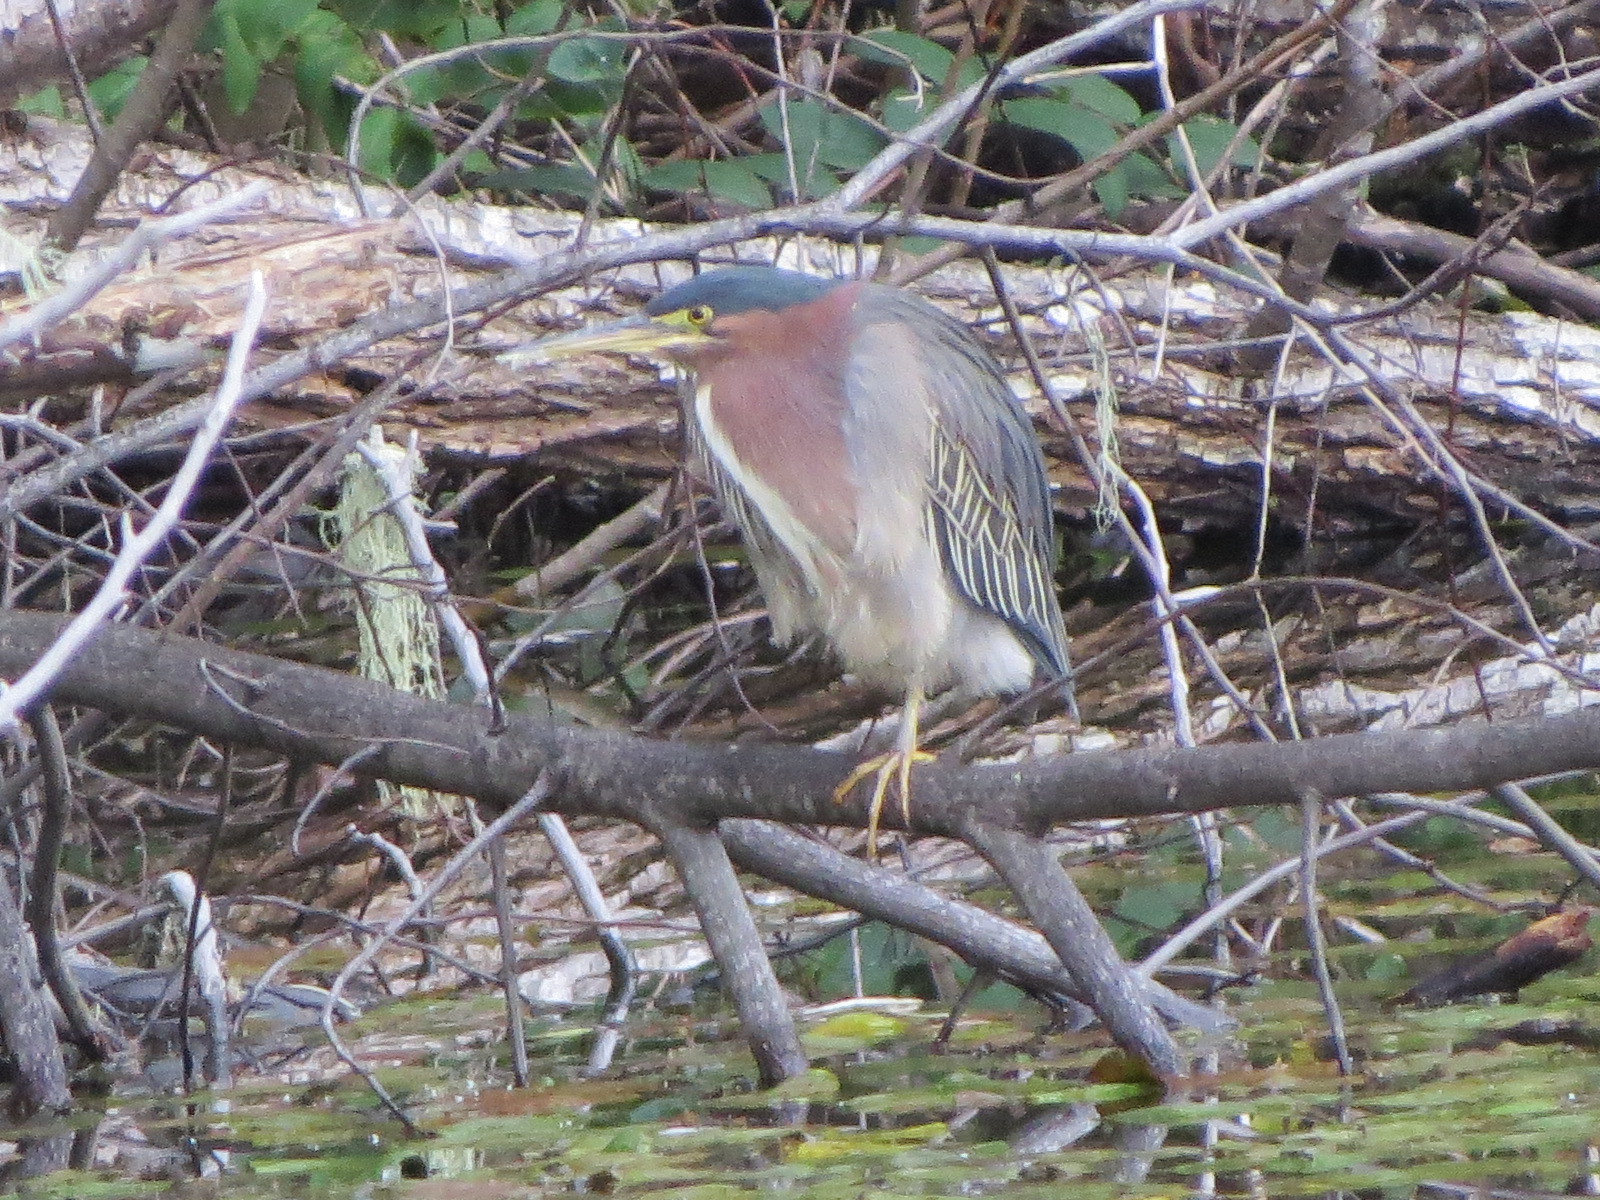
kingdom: Animalia
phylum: Chordata
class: Aves
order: Pelecaniformes
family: Ardeidae
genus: Butorides
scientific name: Butorides virescens
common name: Green heron
